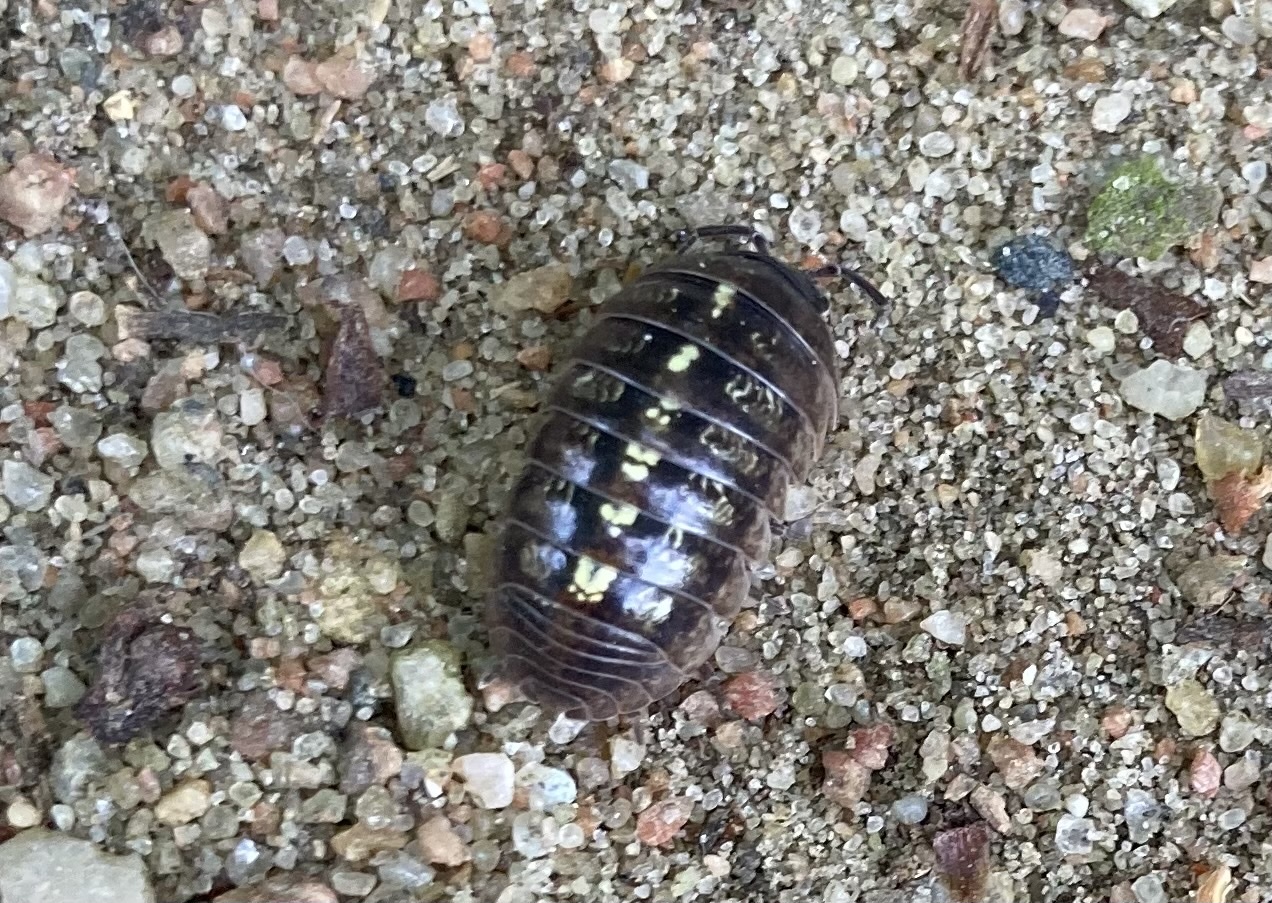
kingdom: Animalia
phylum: Arthropoda
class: Malacostraca
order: Isopoda
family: Armadillidiidae
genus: Armadillidium
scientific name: Armadillidium vulgare
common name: Common pill woodlouse
